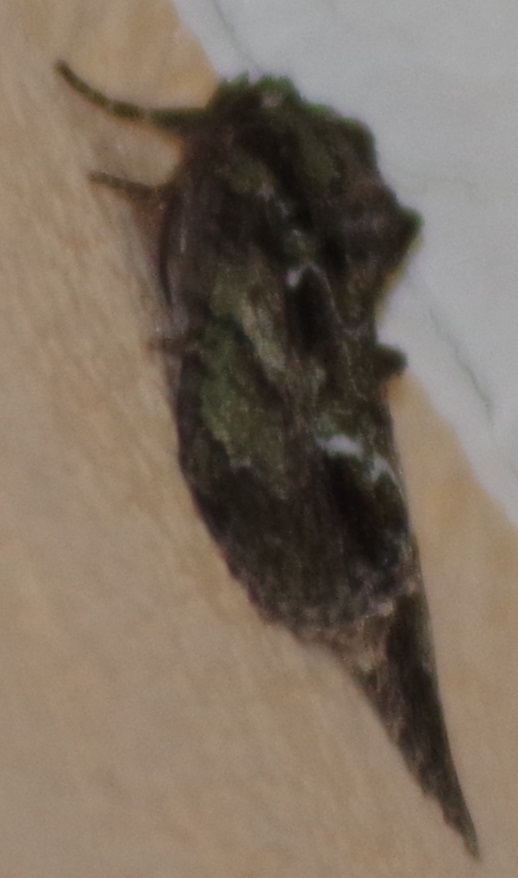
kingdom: Animalia
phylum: Arthropoda
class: Insecta
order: Lepidoptera
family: Noctuidae
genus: Polyphaenis
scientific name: Polyphaenis sericata
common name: Guernsey underwing
